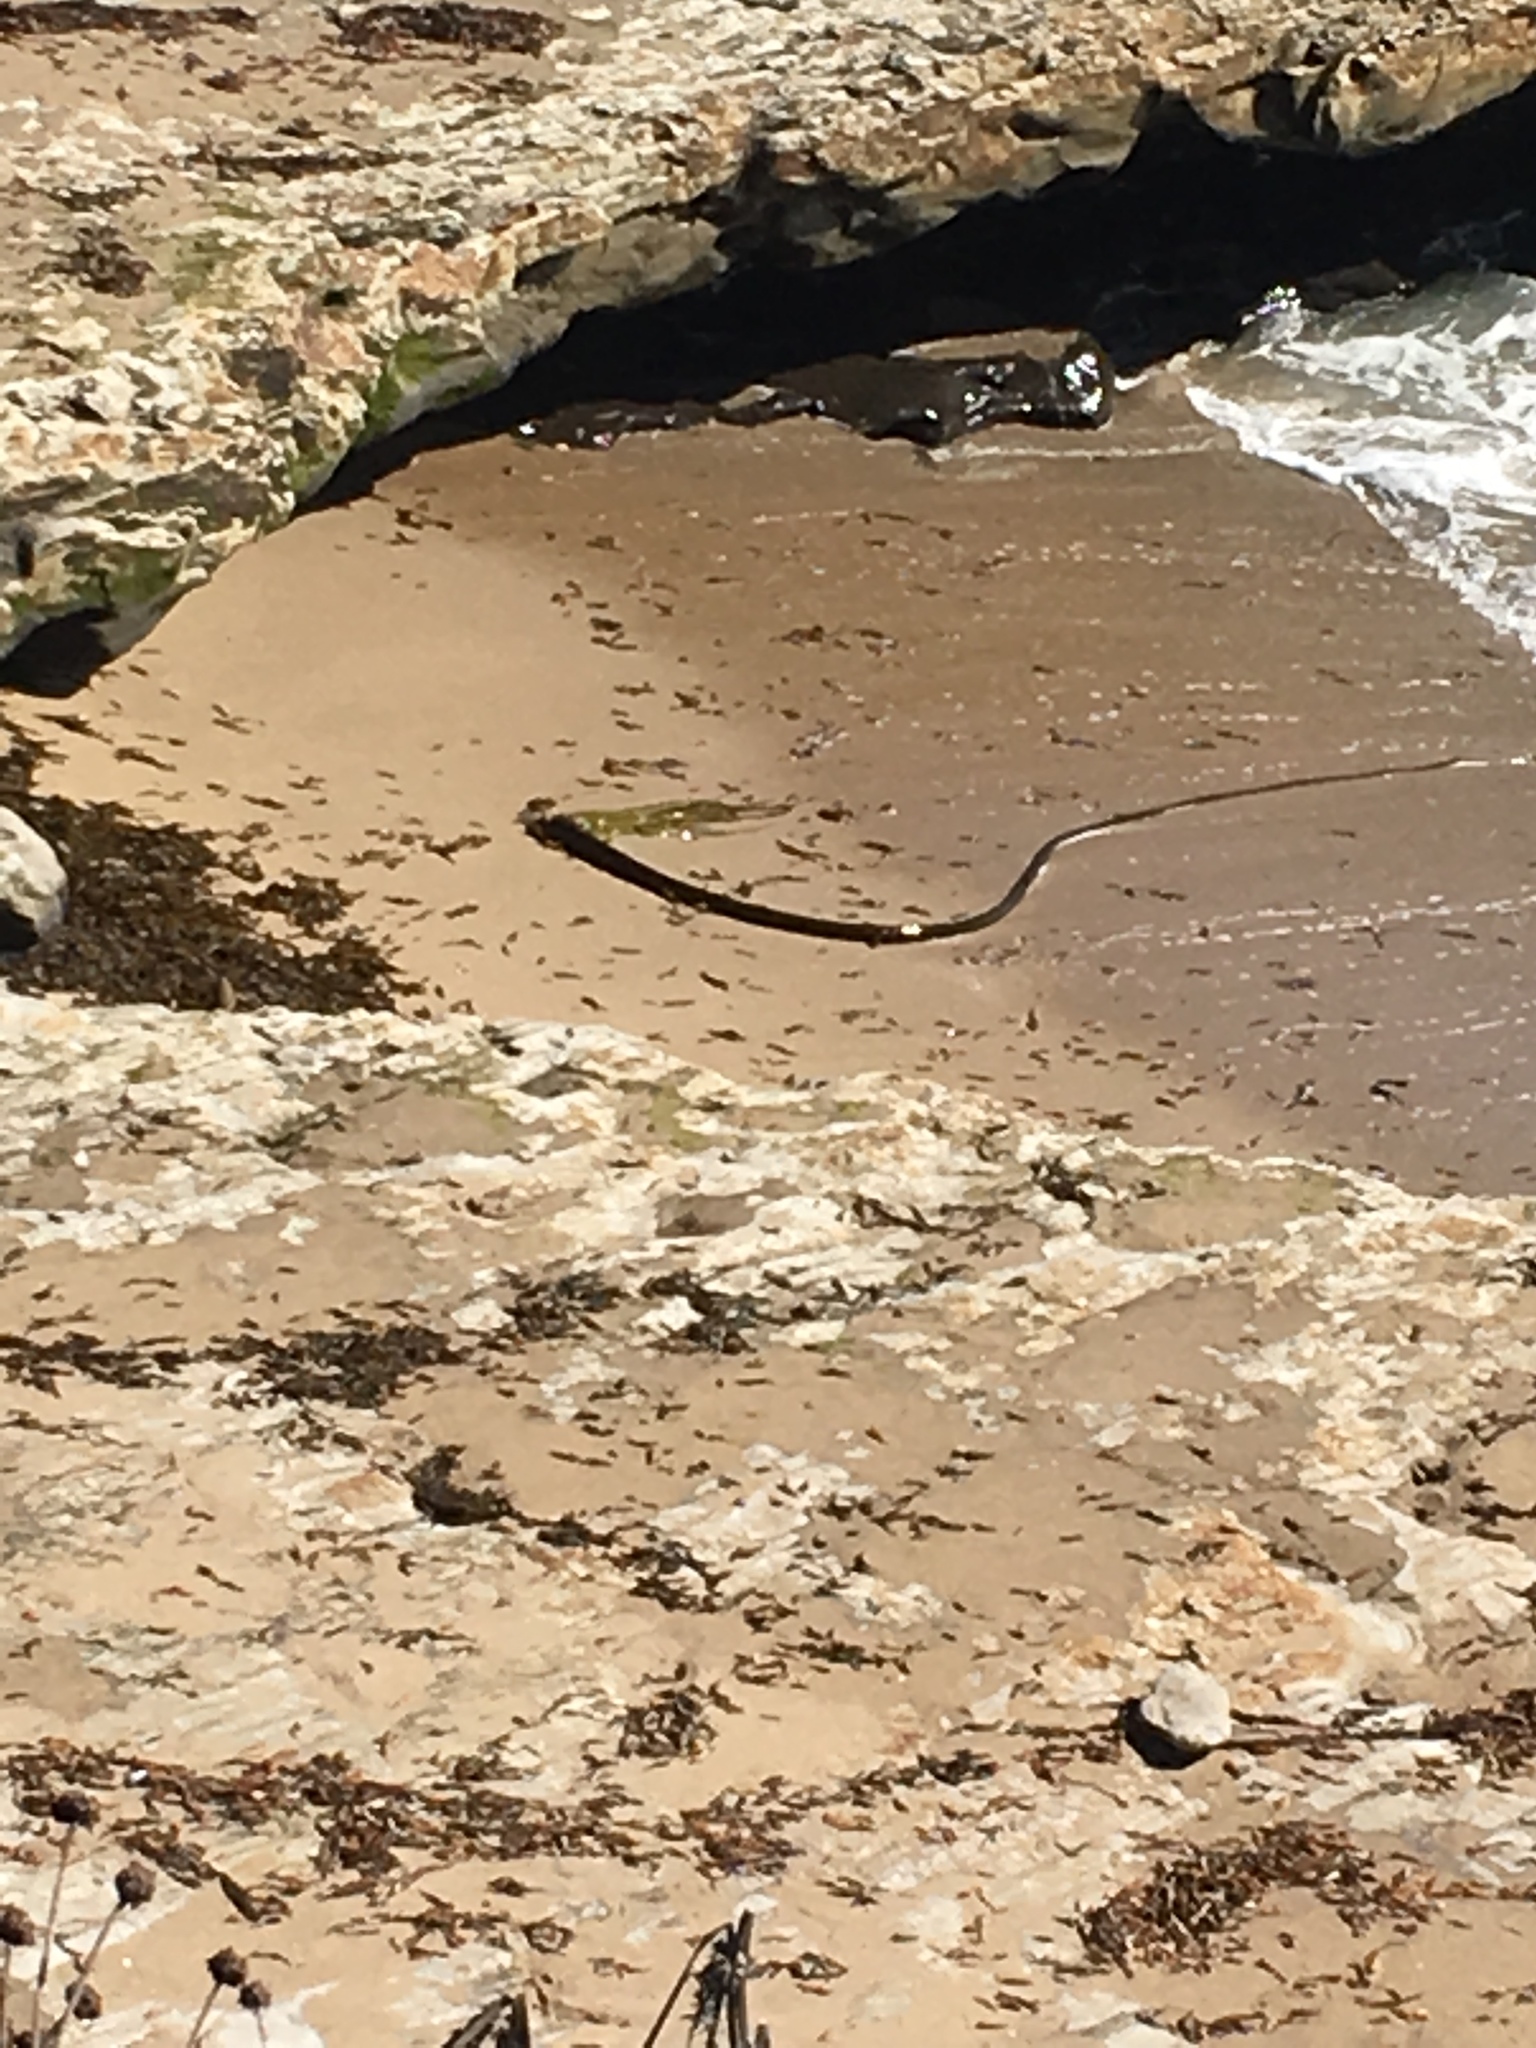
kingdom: Chromista
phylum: Ochrophyta
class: Phaeophyceae
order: Laminariales
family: Laminariaceae
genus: Nereocystis
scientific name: Nereocystis luetkeana
